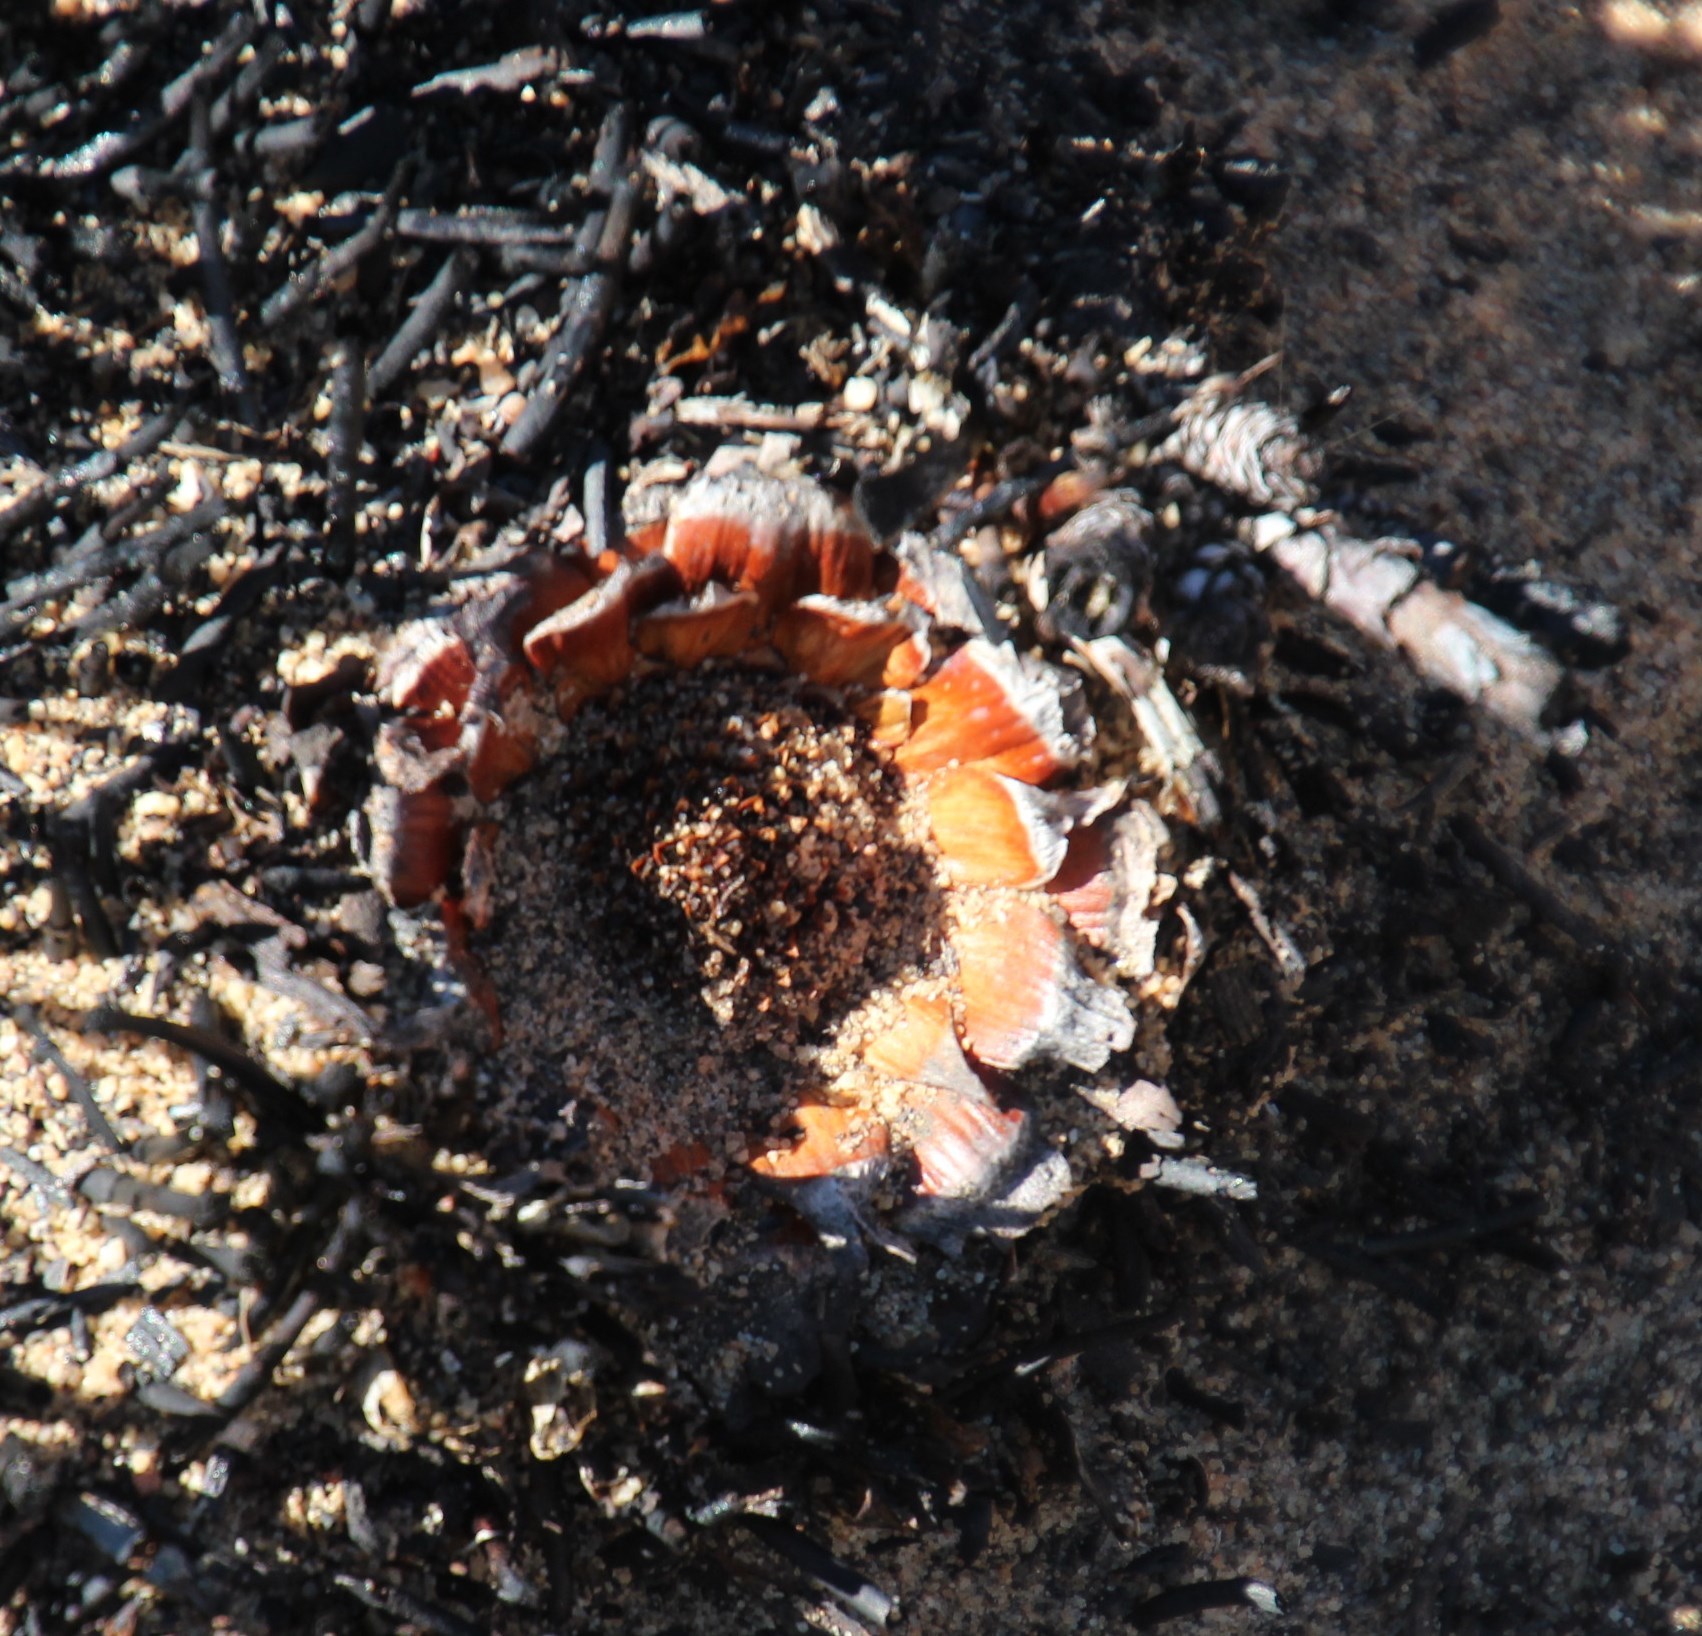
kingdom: Plantae
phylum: Tracheophyta
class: Magnoliopsida
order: Proteales
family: Proteaceae
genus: Protea
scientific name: Protea laevis
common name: Smooth-leaf sugarbush
